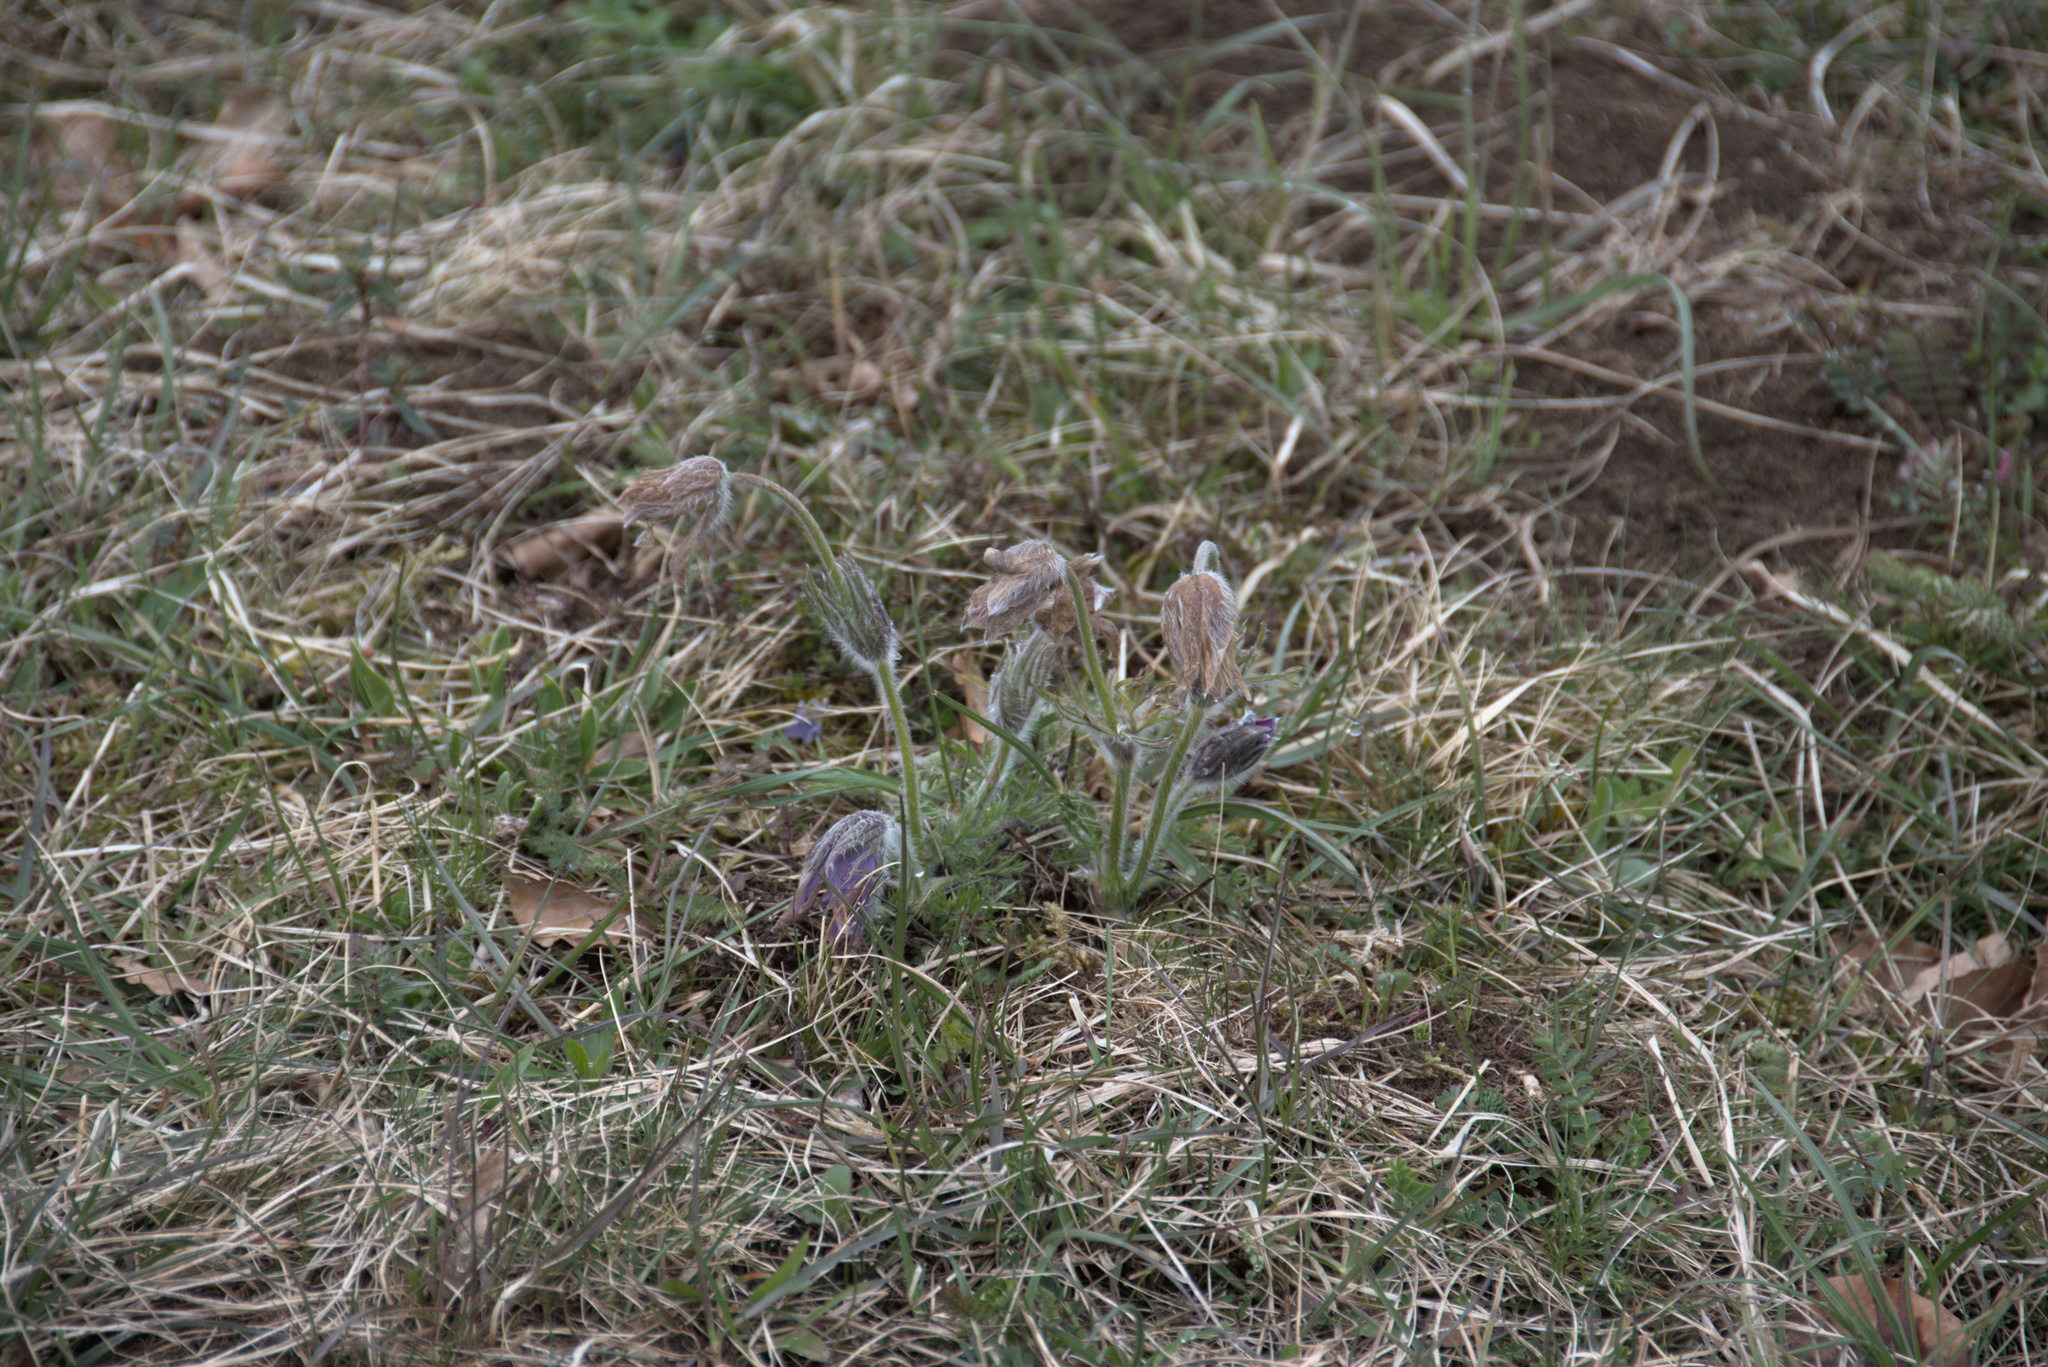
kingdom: Plantae
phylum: Tracheophyta
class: Magnoliopsida
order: Ranunculales
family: Ranunculaceae
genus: Pulsatilla
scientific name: Pulsatilla vulgaris
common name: Pasqueflower
